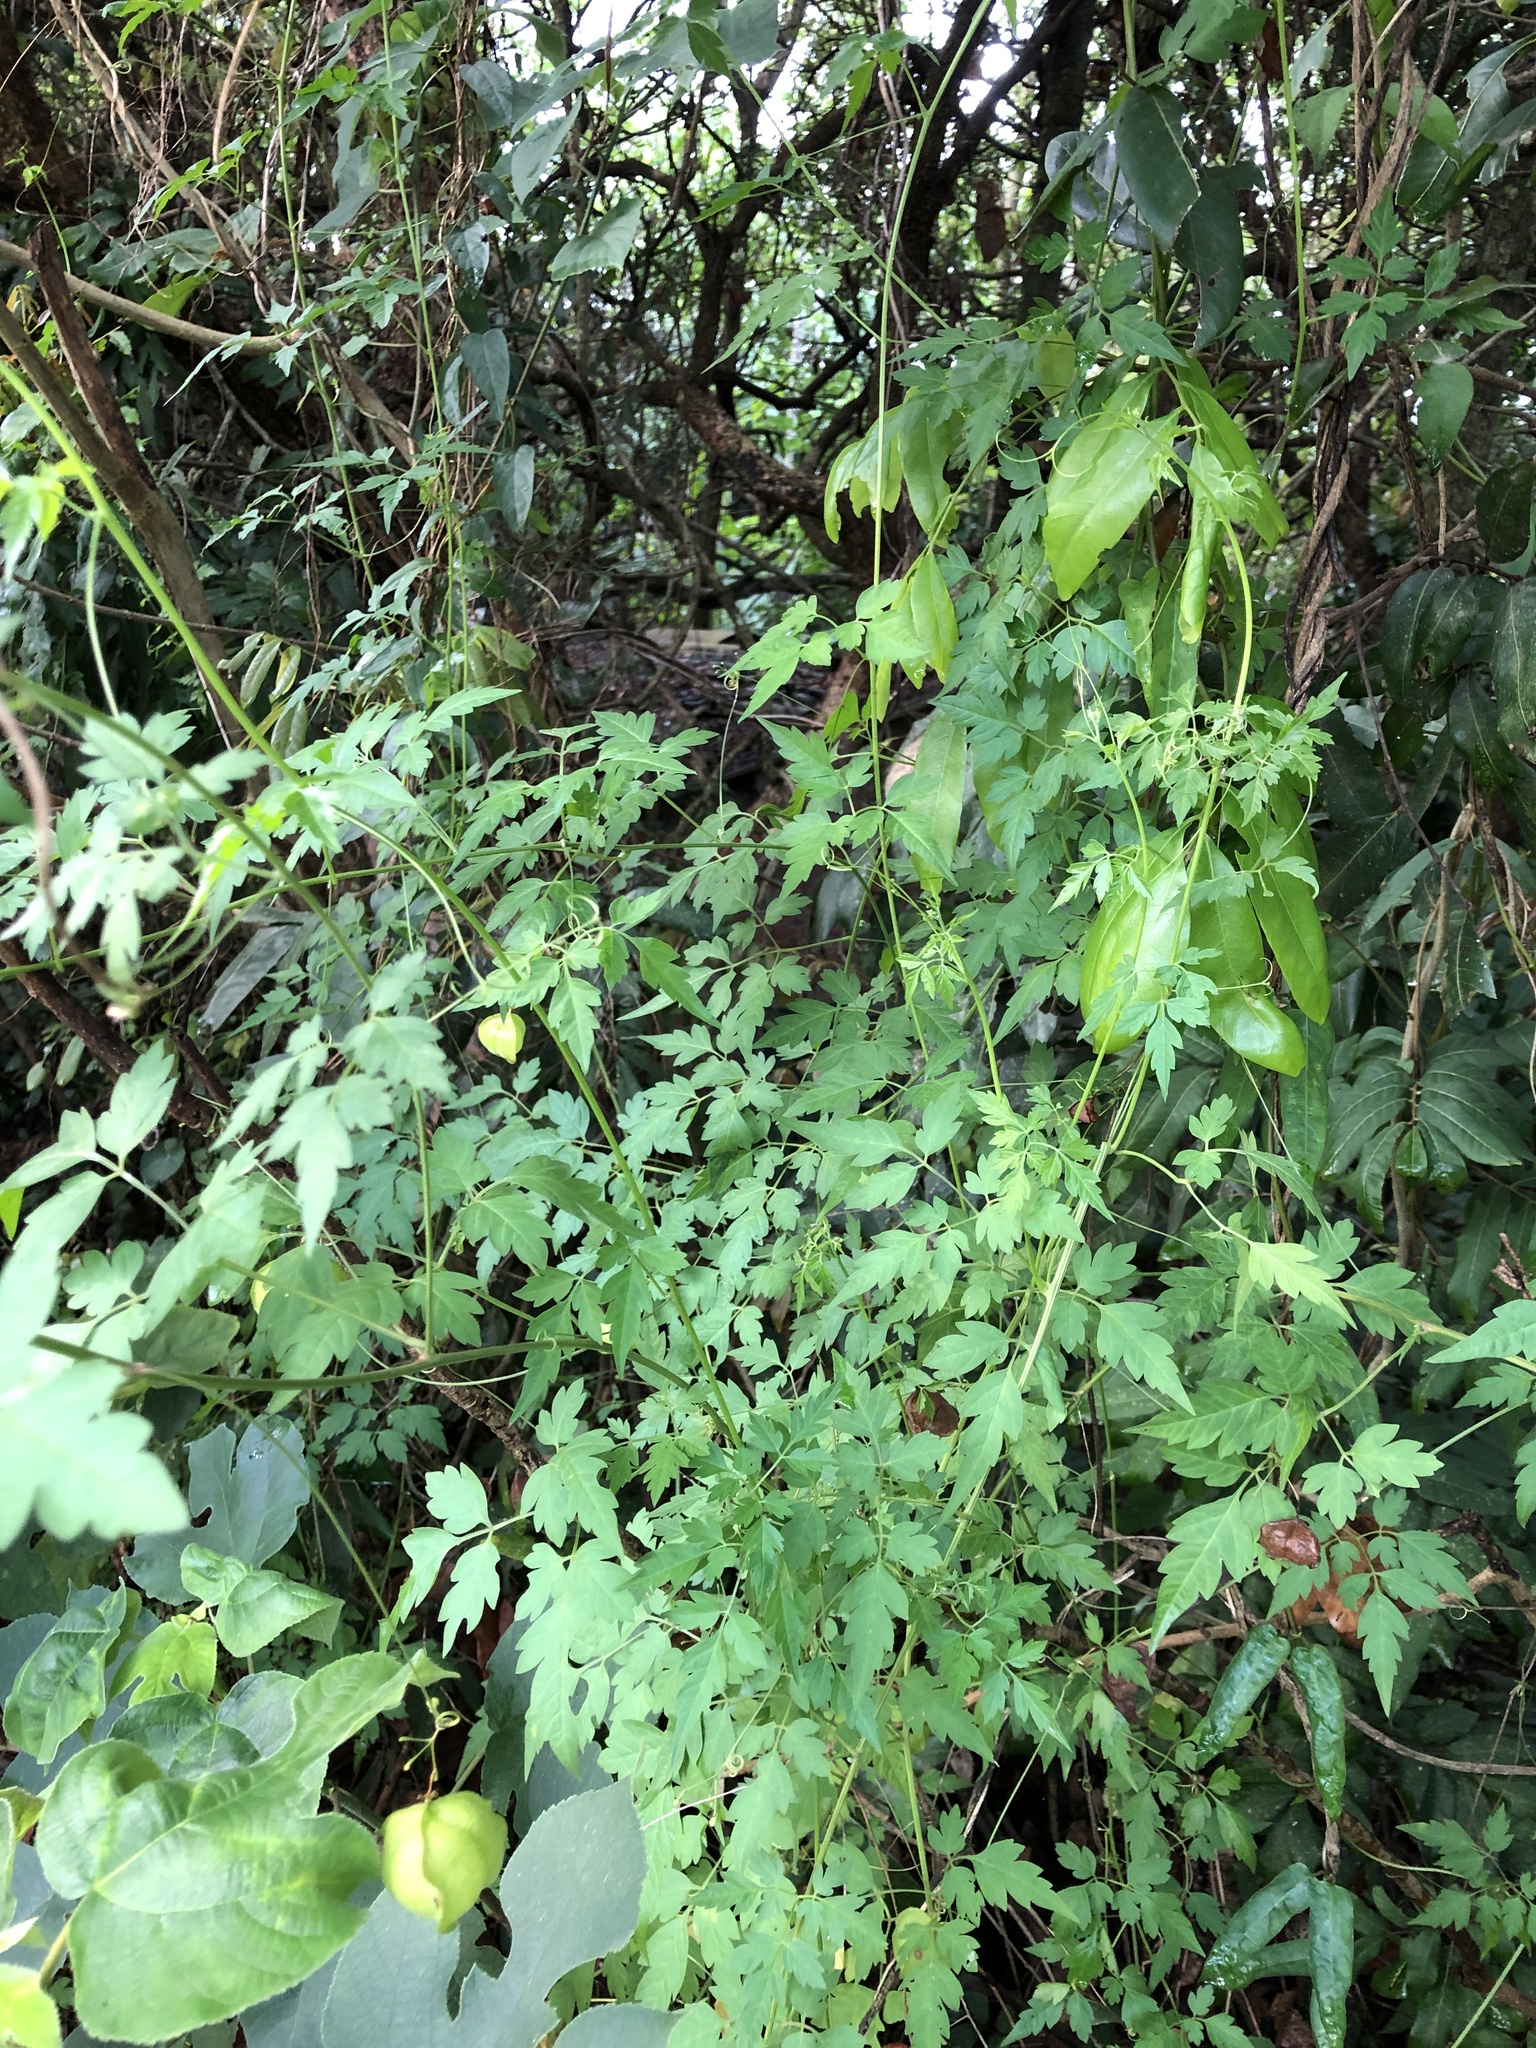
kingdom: Plantae
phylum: Tracheophyta
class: Magnoliopsida
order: Sapindales
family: Sapindaceae
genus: Cardiospermum
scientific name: Cardiospermum halicacabum
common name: Balloon vine
